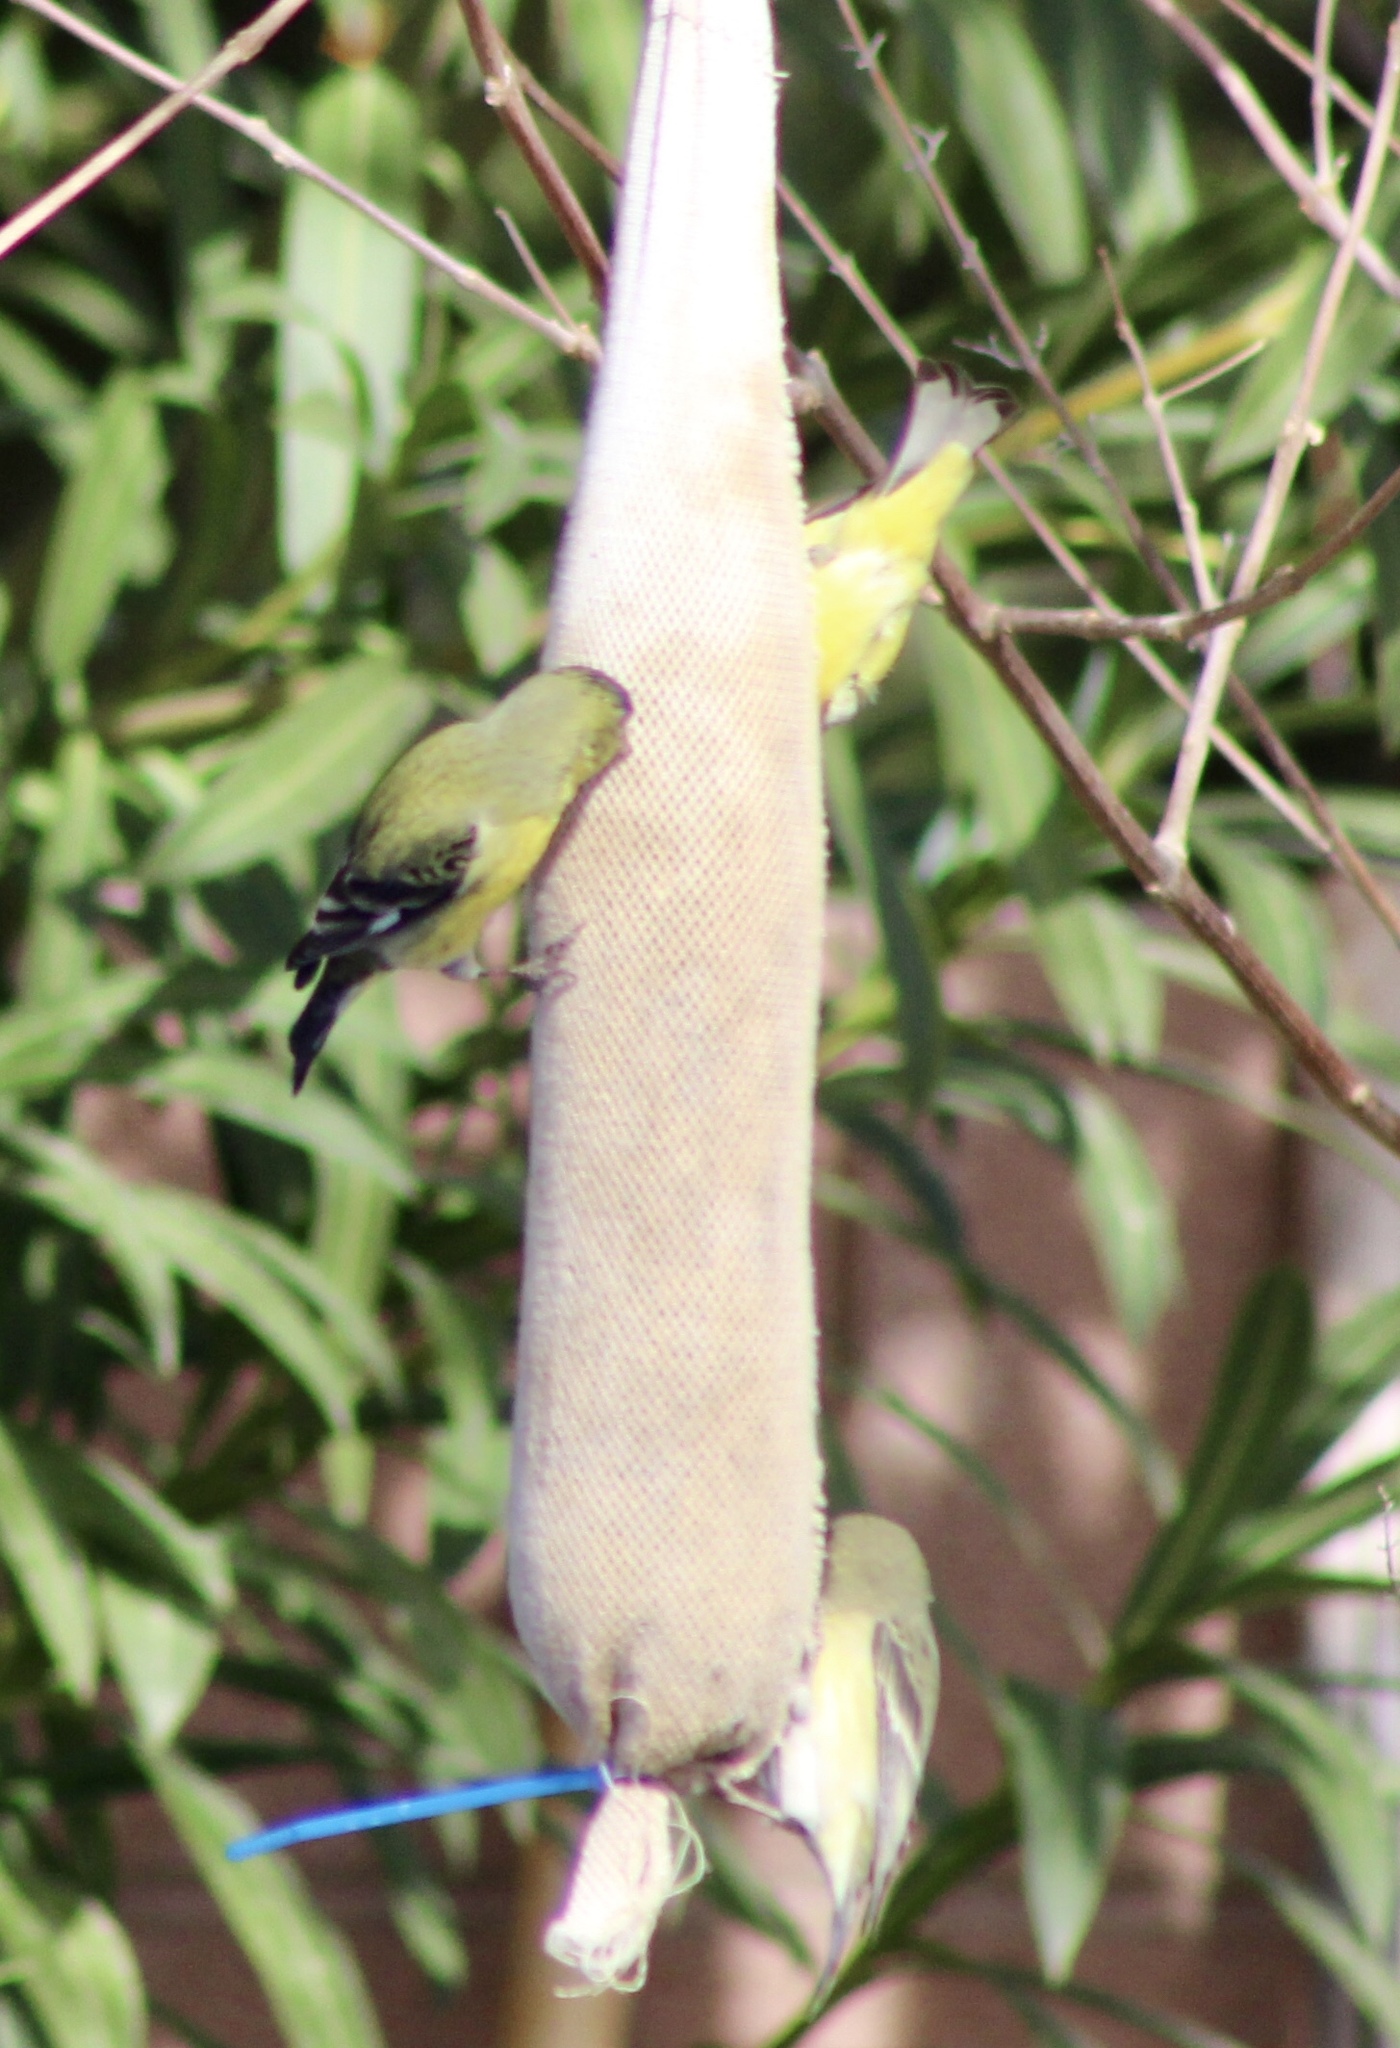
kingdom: Animalia
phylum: Chordata
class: Aves
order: Passeriformes
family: Fringillidae
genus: Spinus
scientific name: Spinus psaltria
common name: Lesser goldfinch
